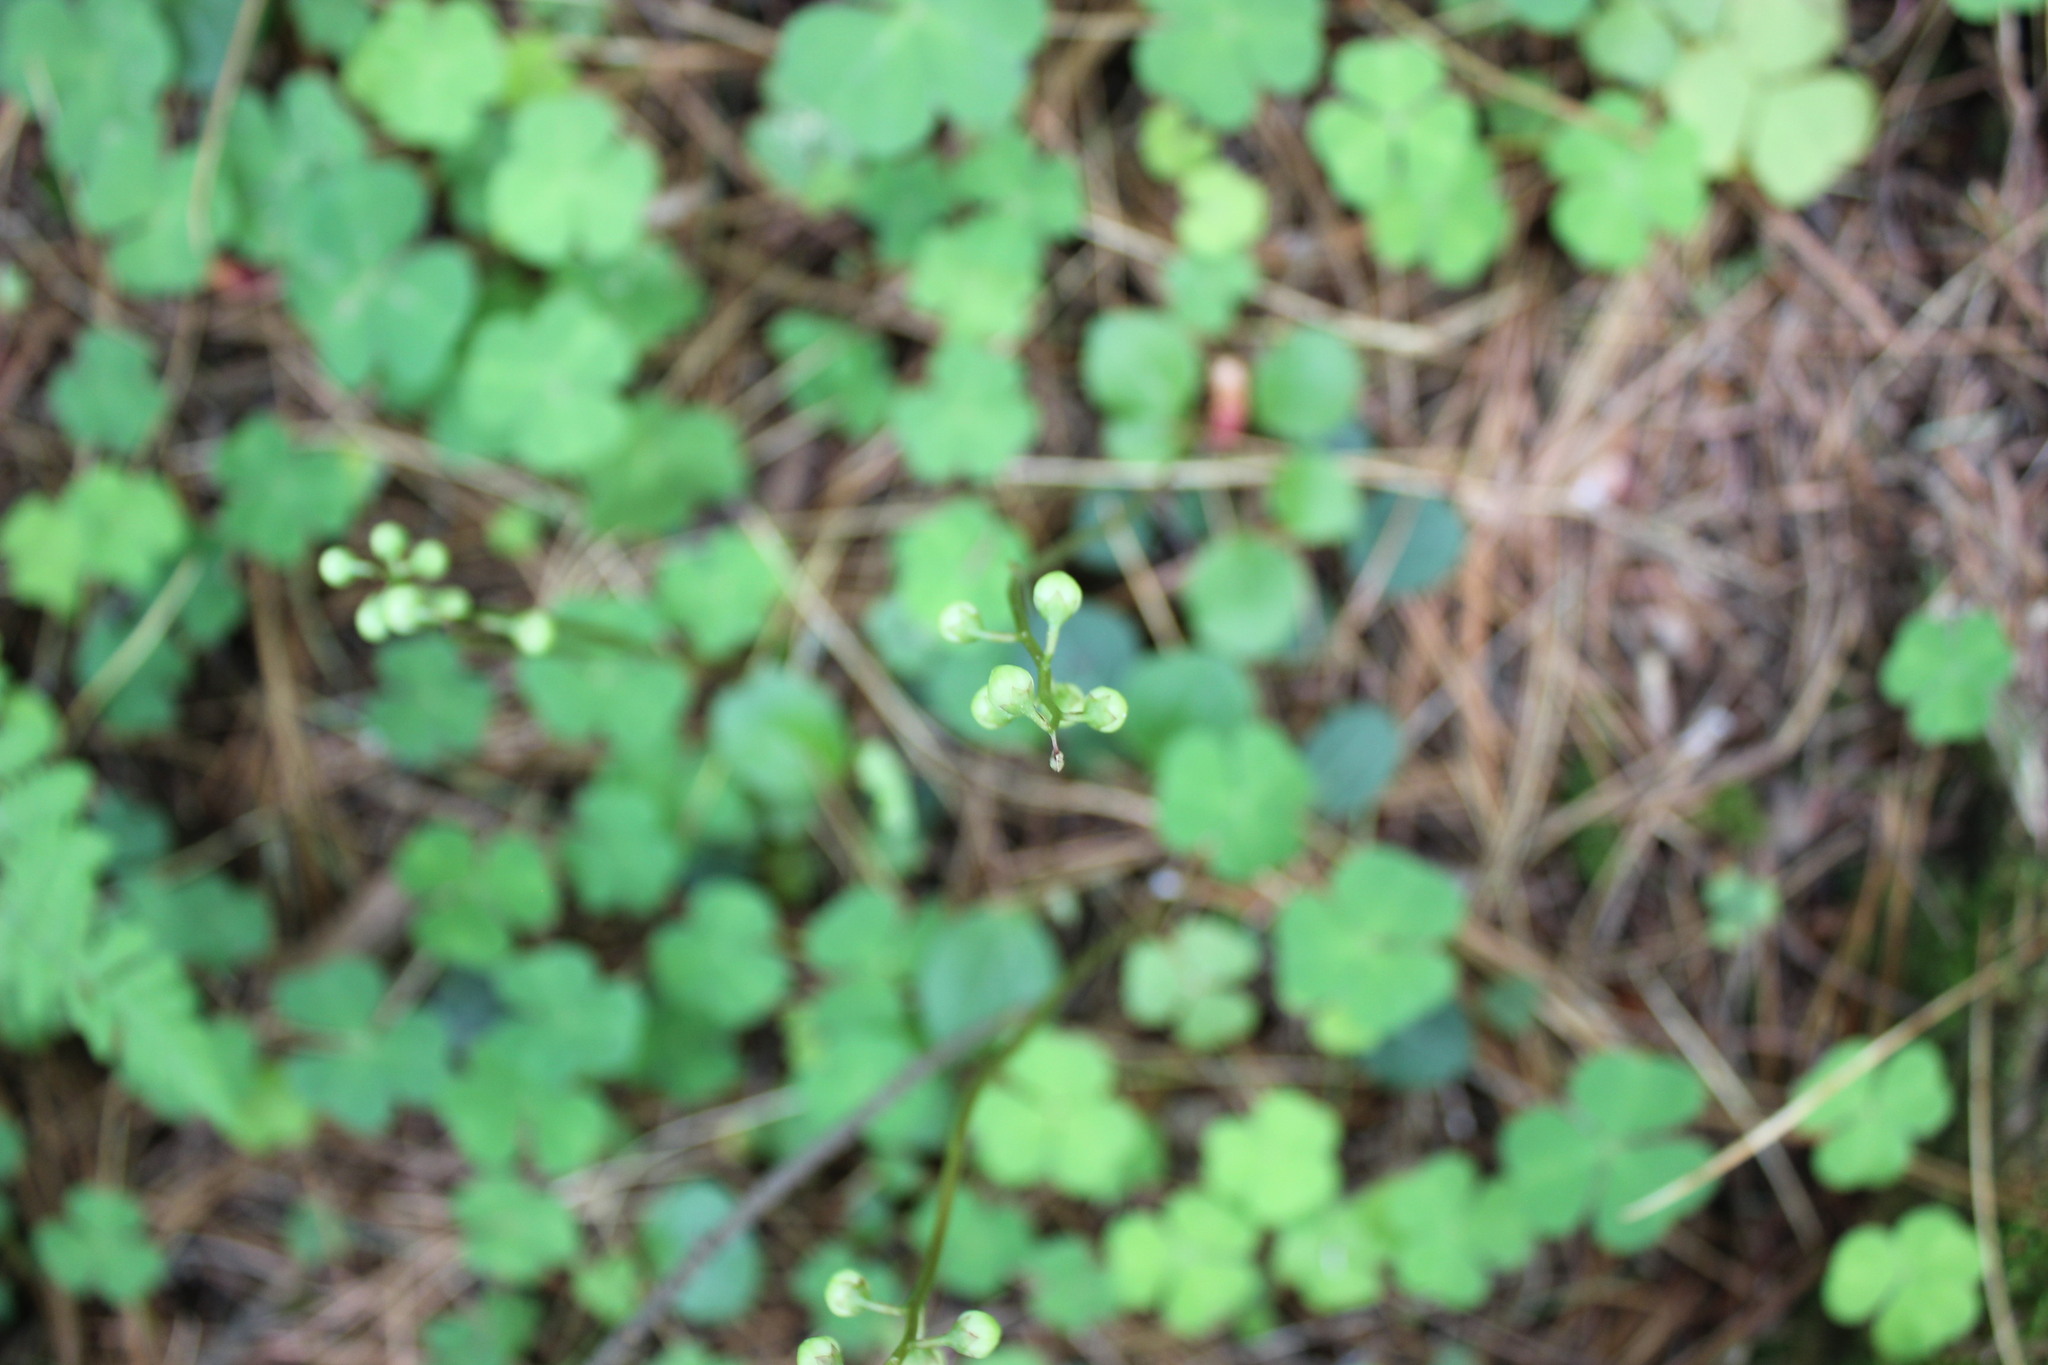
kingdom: Plantae
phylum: Tracheophyta
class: Magnoliopsida
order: Ericales
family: Ericaceae
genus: Pyrola
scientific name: Pyrola chlorantha
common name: Green wintergreen
